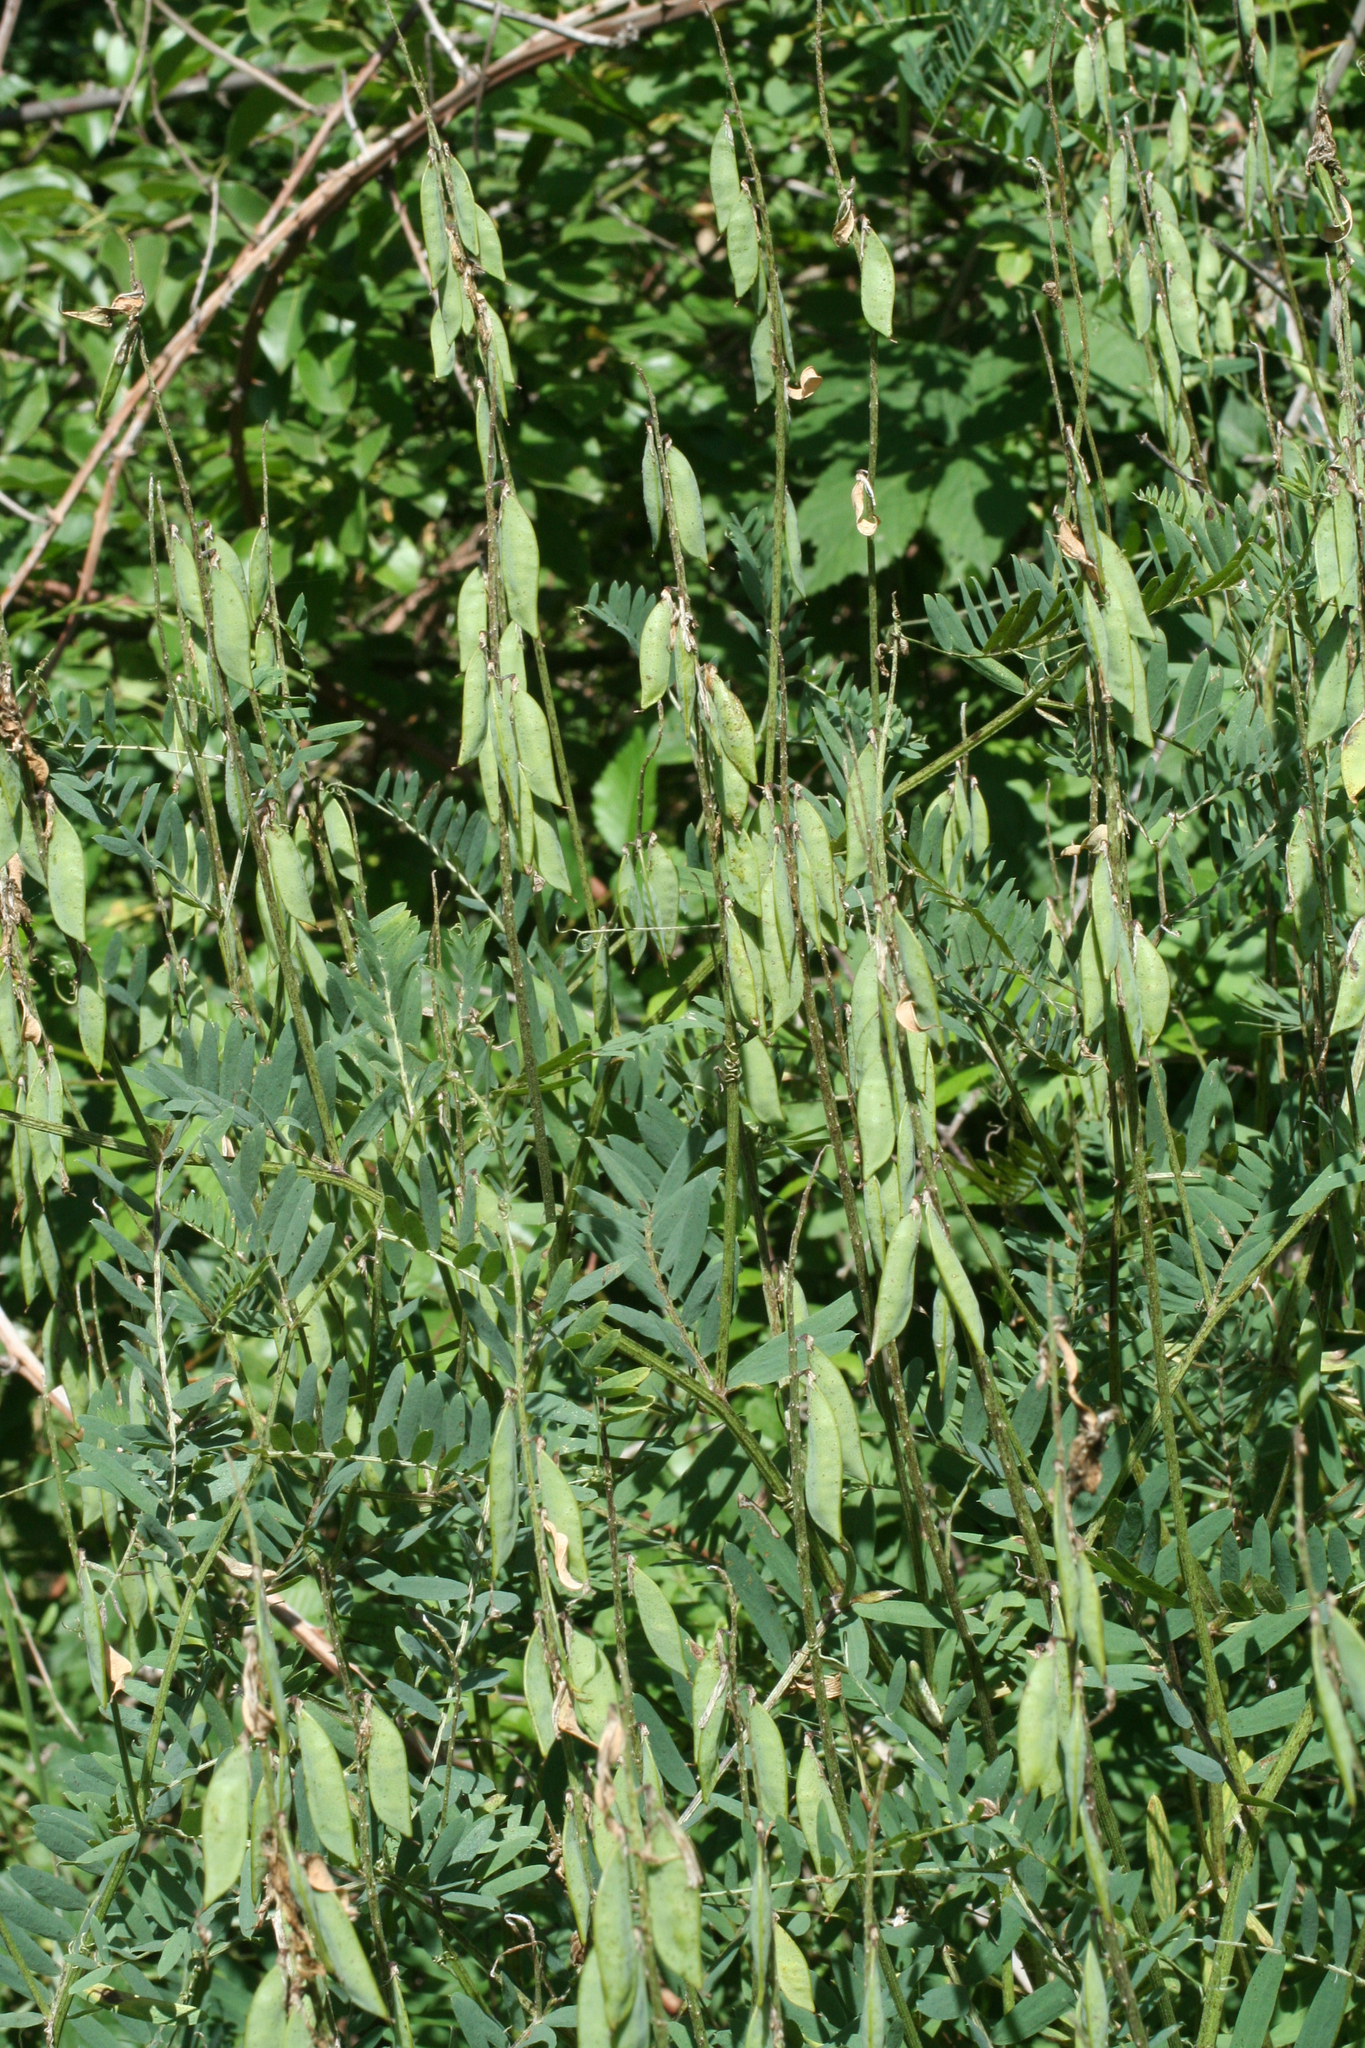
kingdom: Plantae
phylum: Tracheophyta
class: Magnoliopsida
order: Fabales
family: Fabaceae
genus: Vicia
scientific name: Vicia tenuifolia
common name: Fine-leaved vetch
